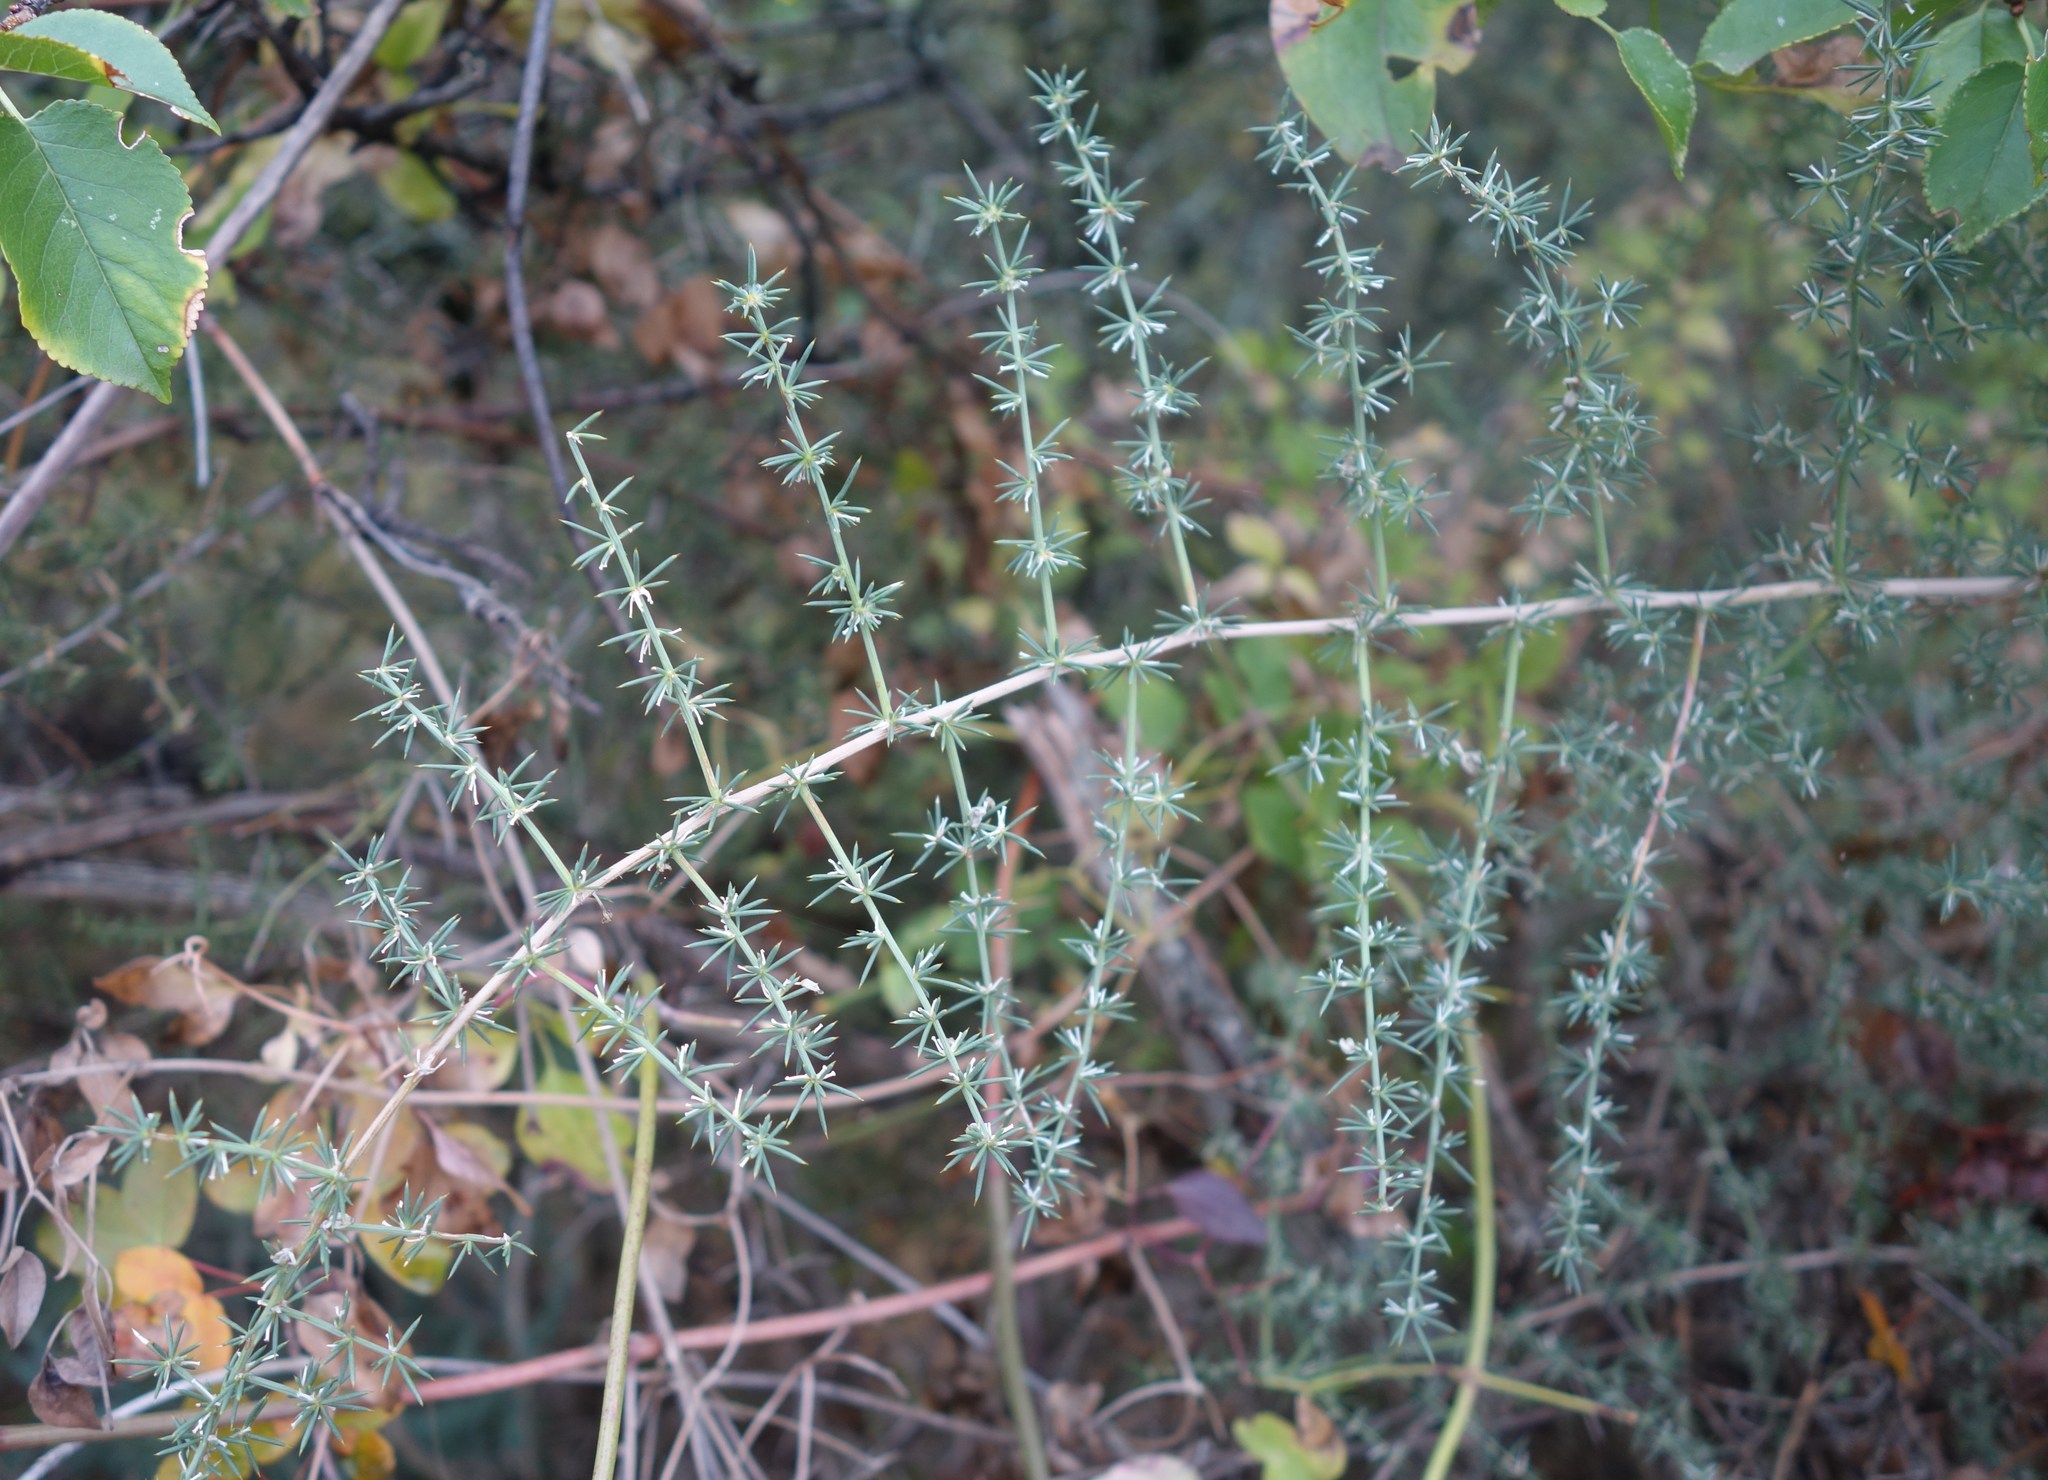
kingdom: Plantae
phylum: Tracheophyta
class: Liliopsida
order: Asparagales
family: Asparagaceae
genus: Asparagus
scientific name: Asparagus acutifolius
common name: Wild asparagus
